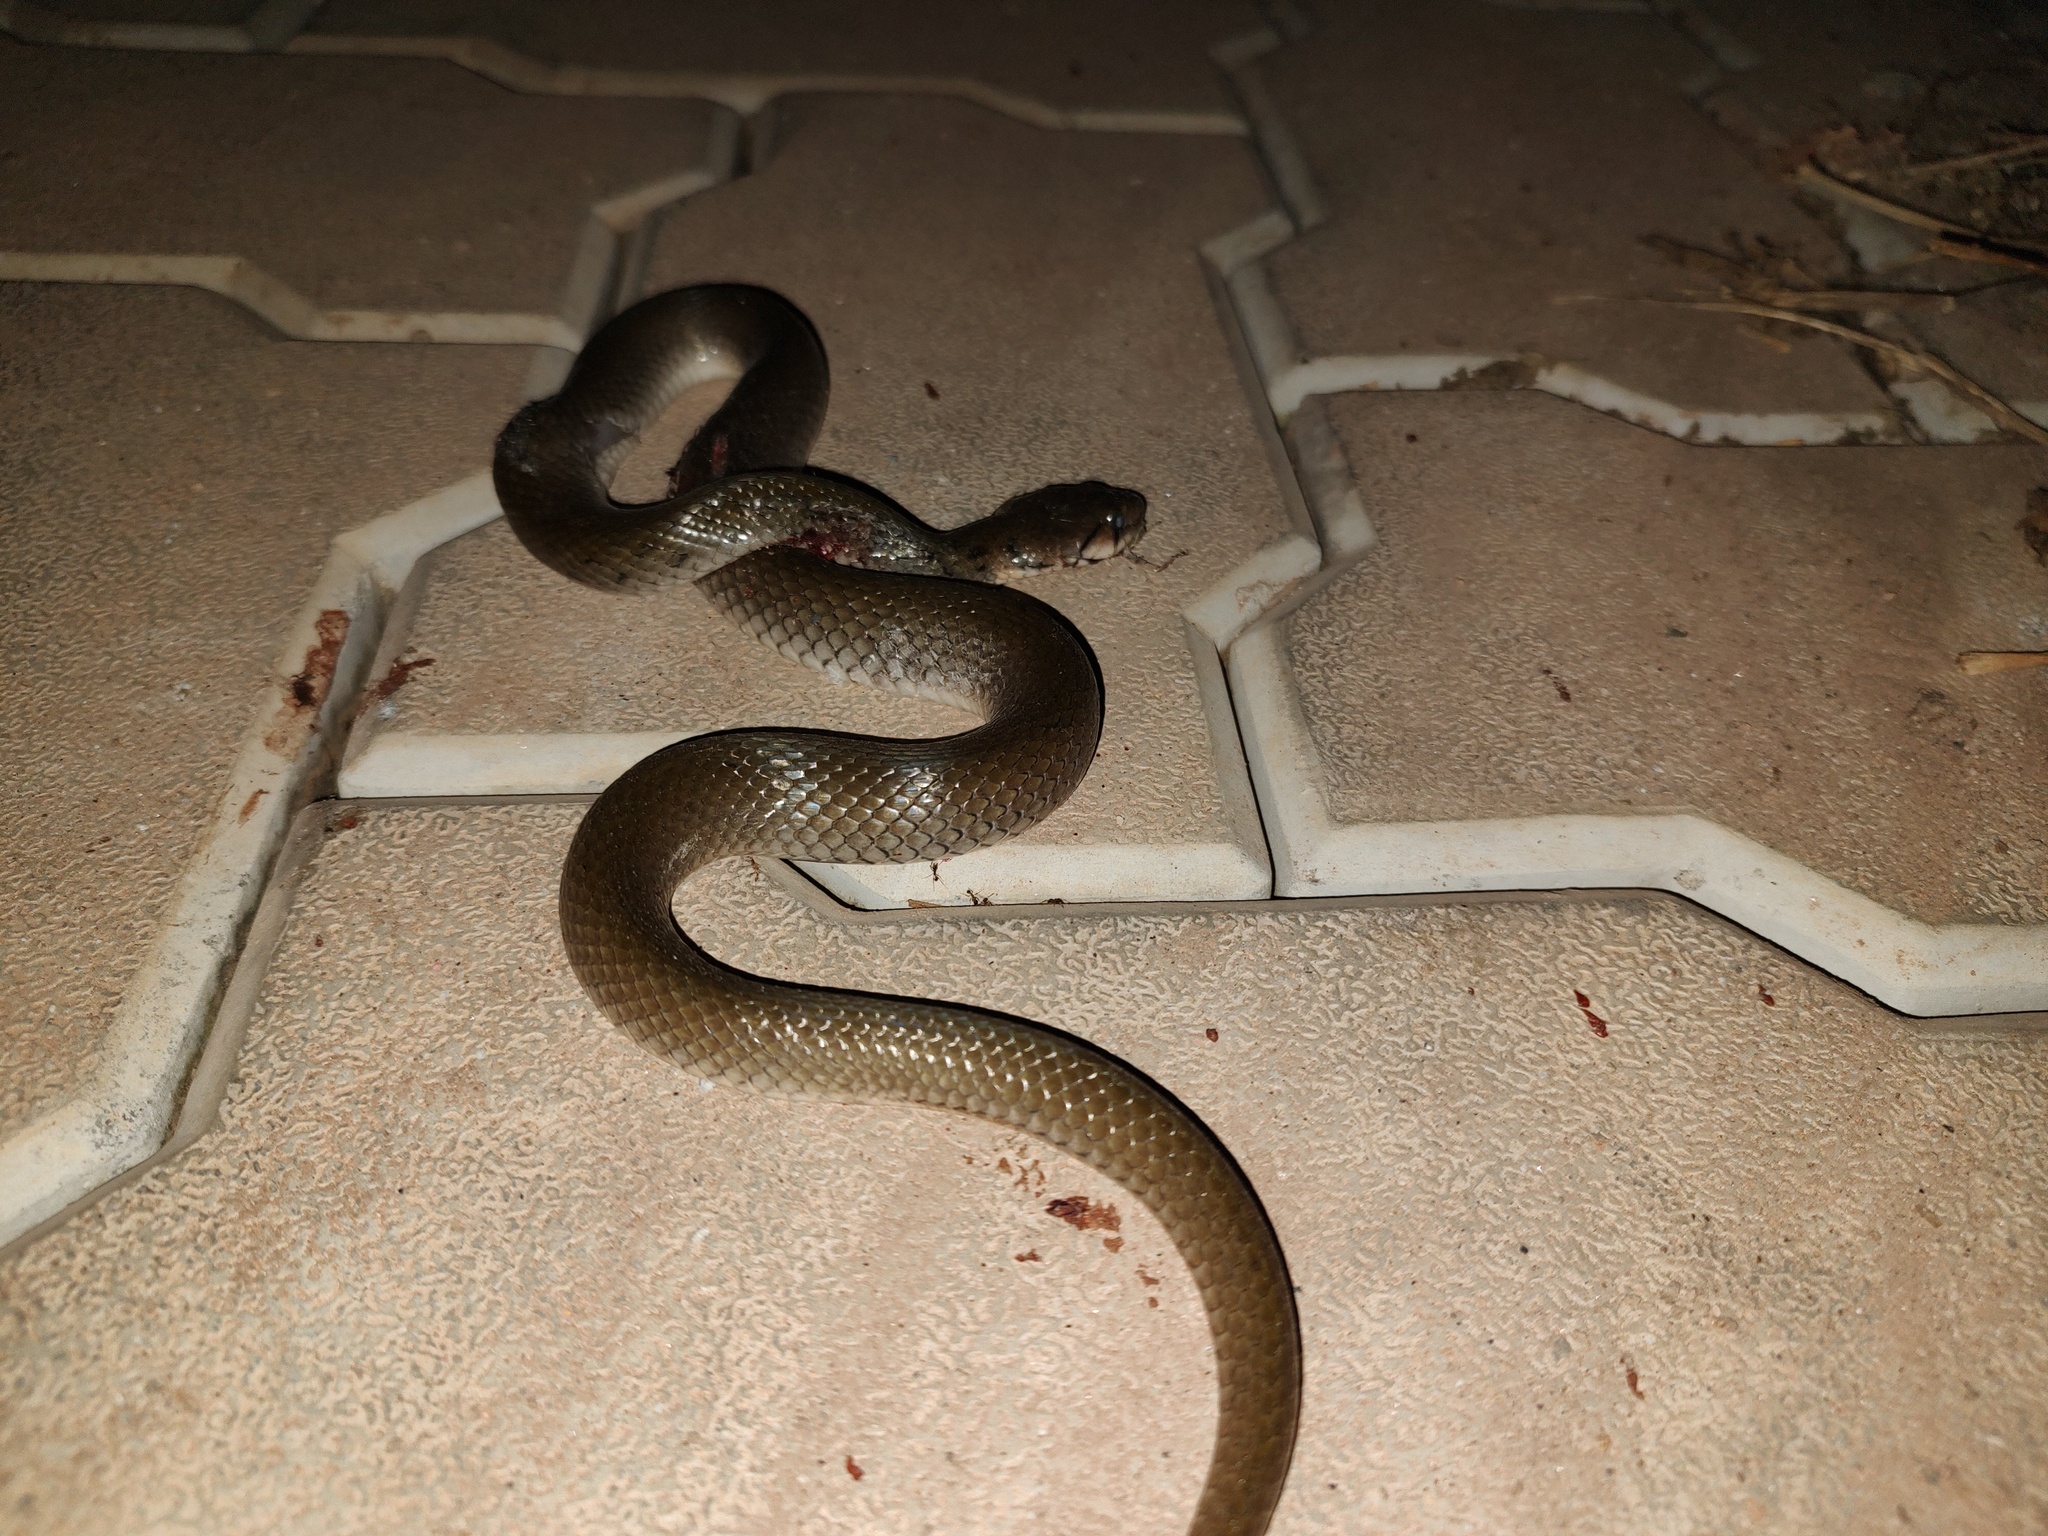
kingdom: Animalia
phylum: Chordata
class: Squamata
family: Colubridae
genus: Fowlea
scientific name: Fowlea piscator
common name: Asiatic water snake
